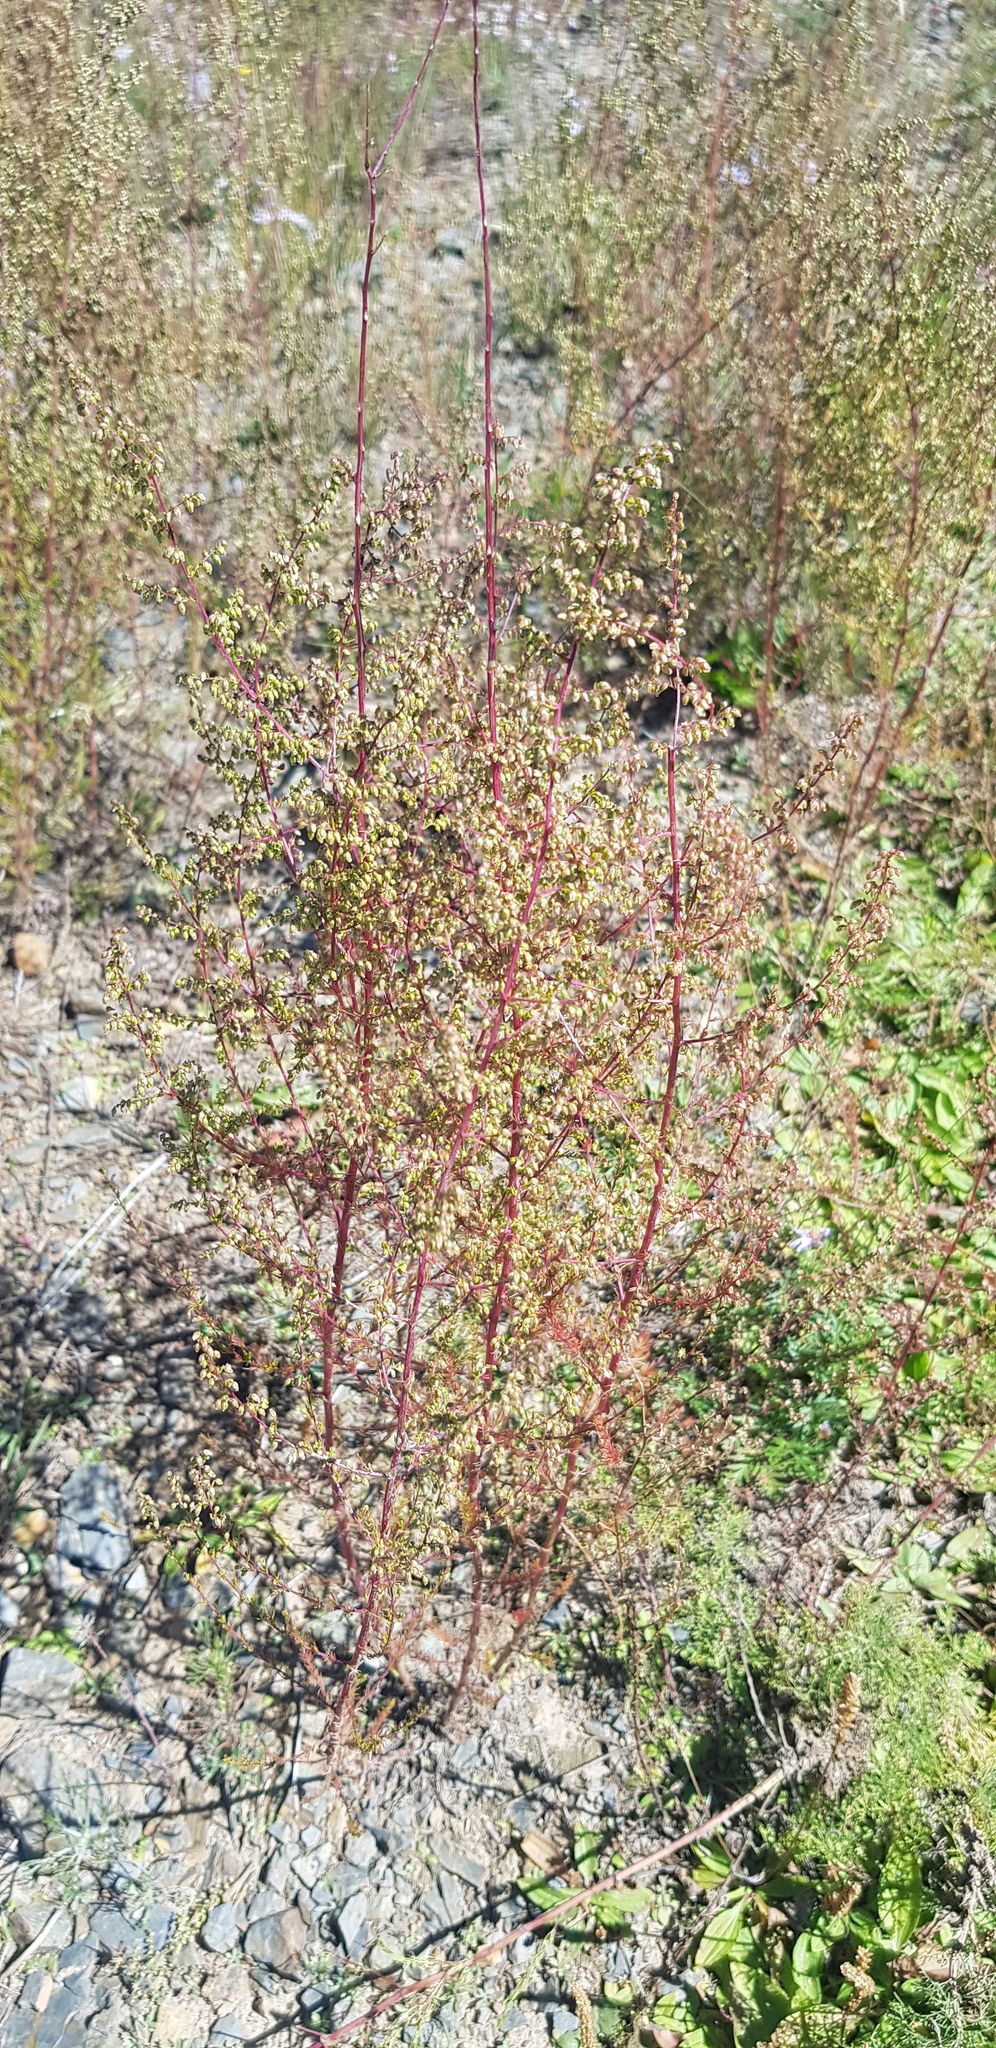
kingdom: Plantae
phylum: Tracheophyta
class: Magnoliopsida
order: Asterales
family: Asteraceae
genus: Artemisia
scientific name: Artemisia scoparia
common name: Redstem wormwood
